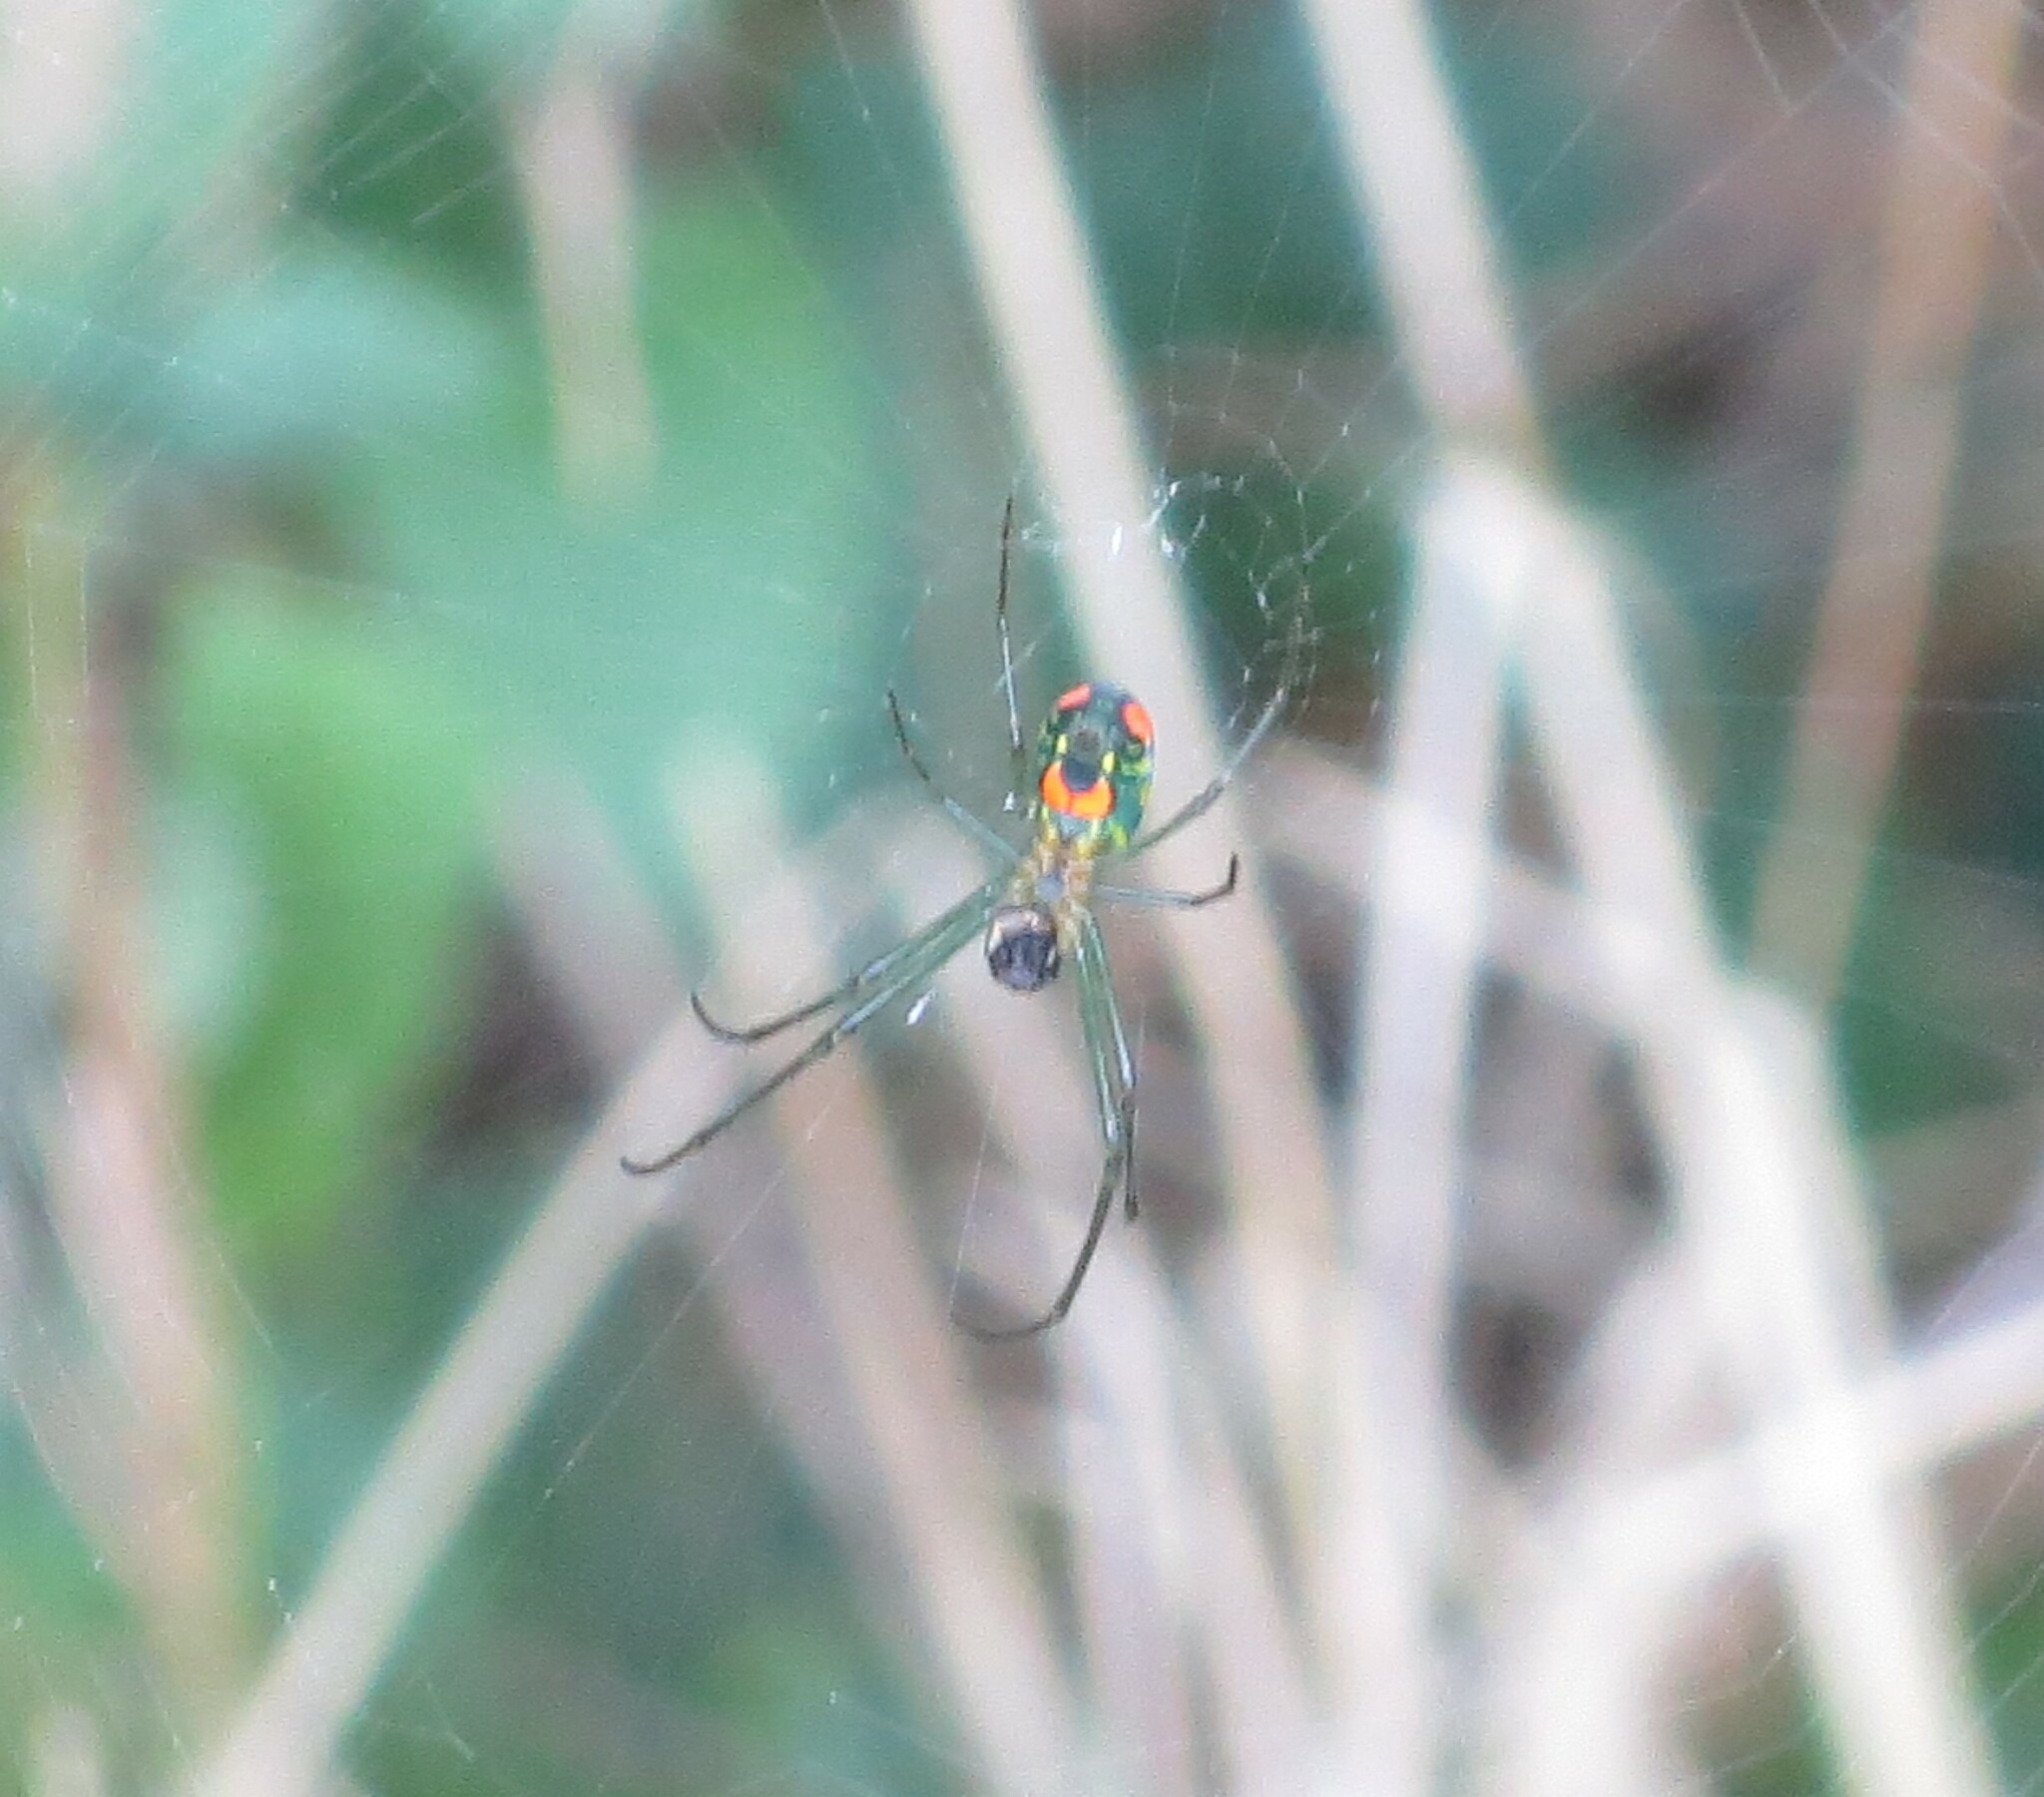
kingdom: Animalia
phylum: Arthropoda
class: Arachnida
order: Araneae
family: Tetragnathidae
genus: Leucauge
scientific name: Leucauge argyrobapta
